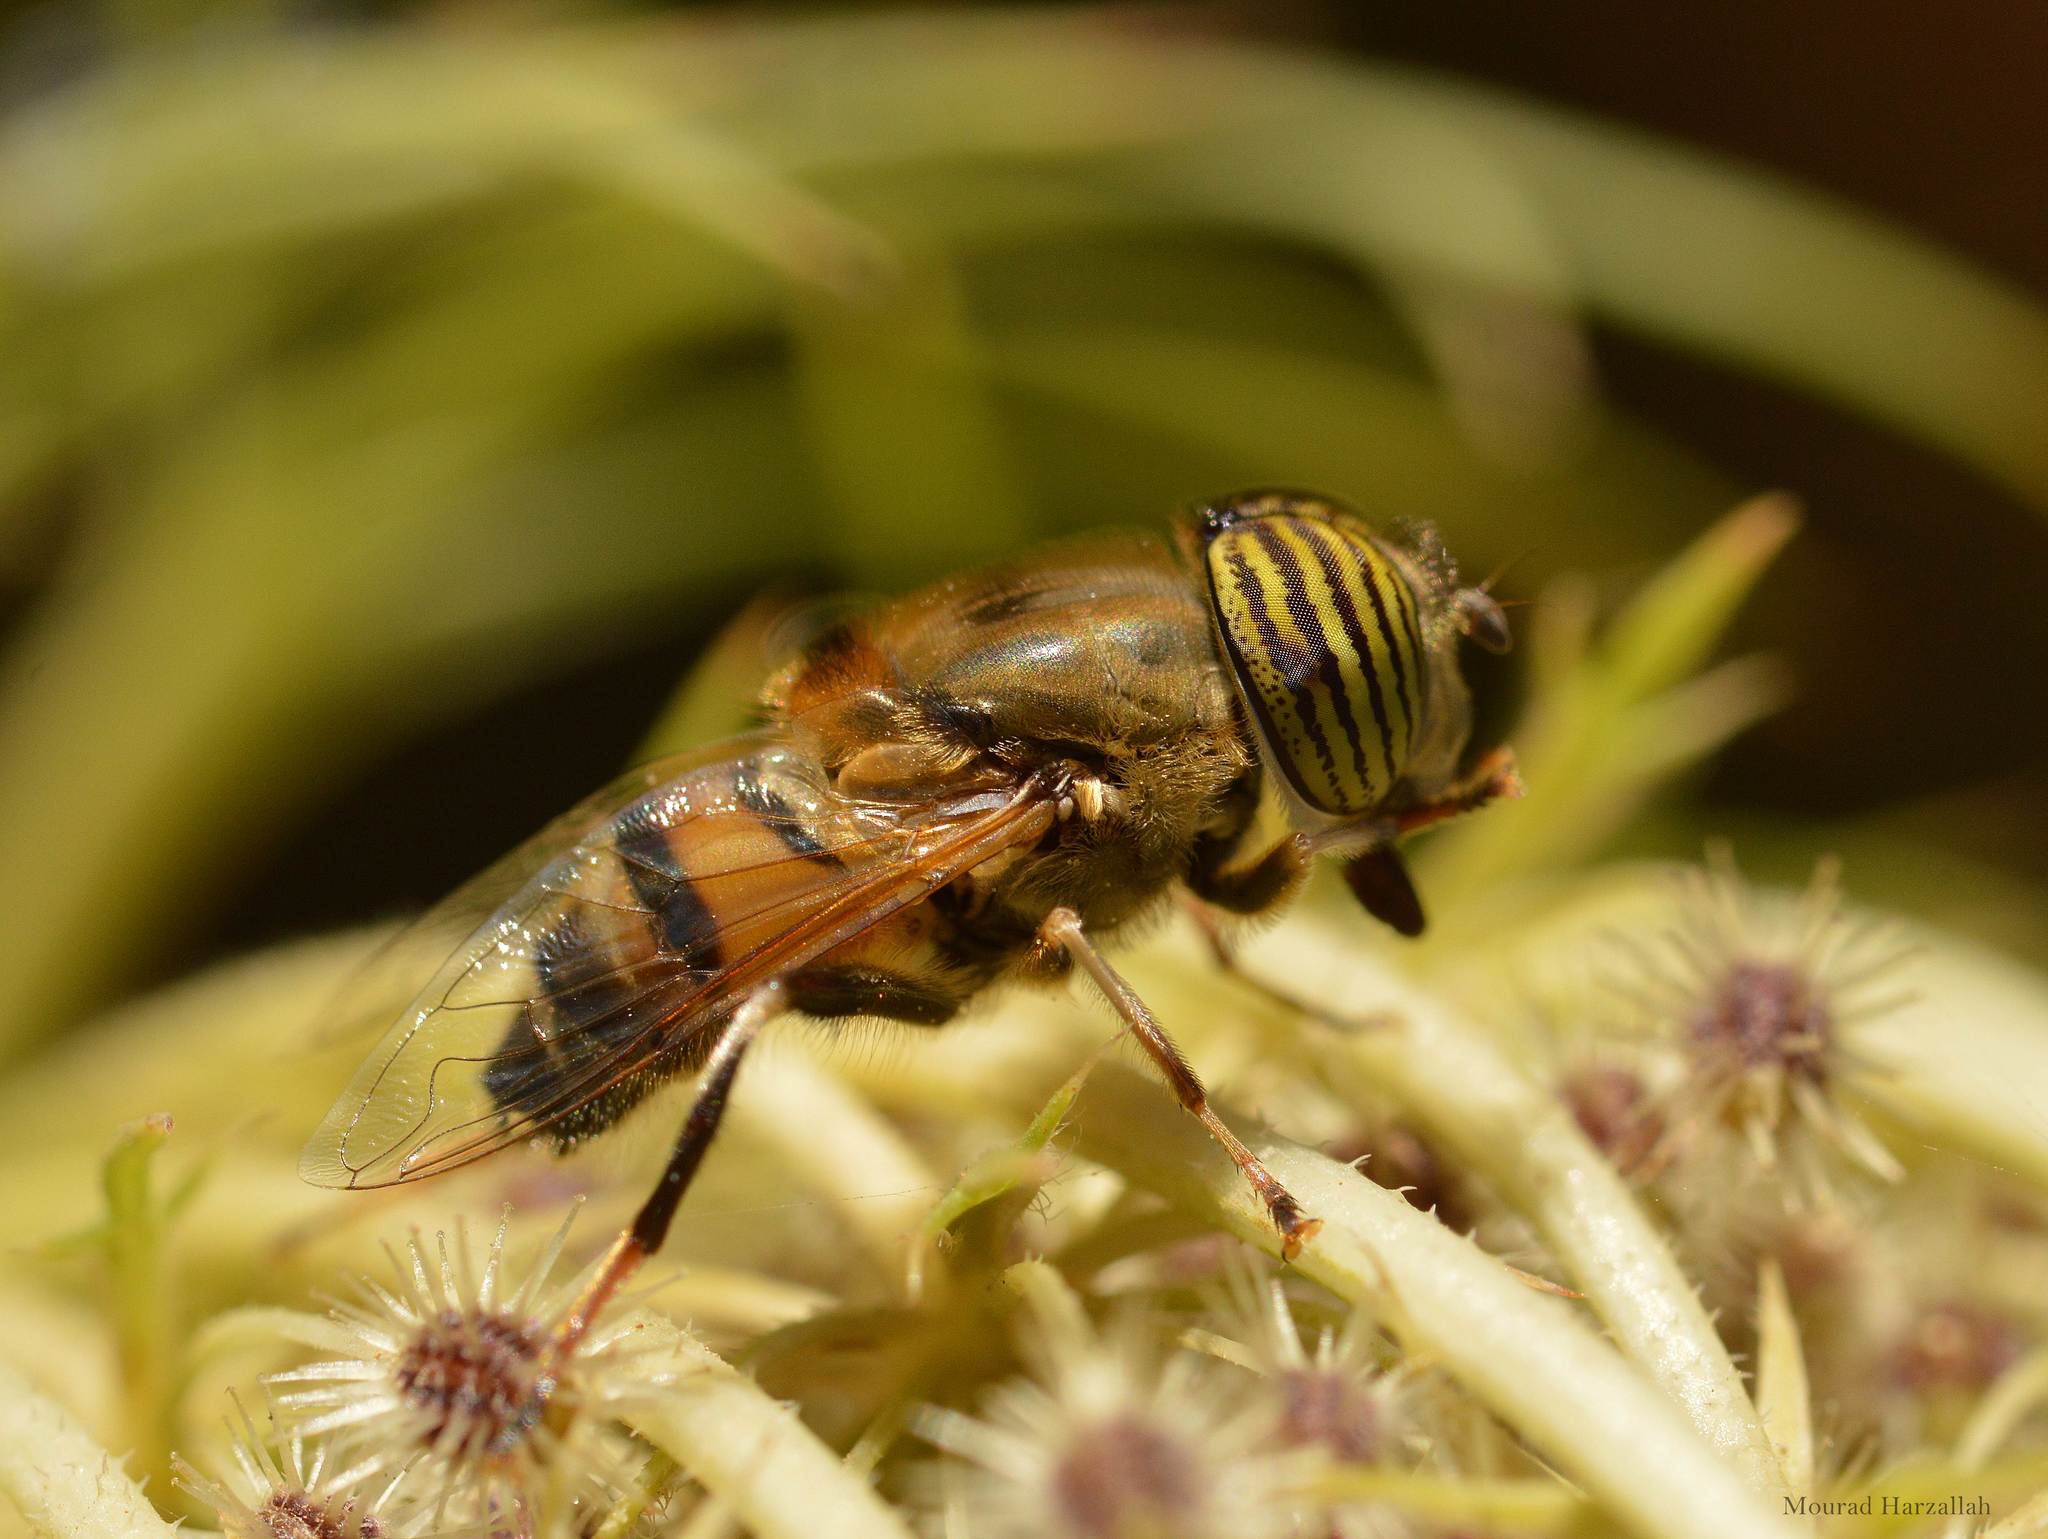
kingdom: Animalia
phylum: Arthropoda
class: Insecta
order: Diptera
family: Syrphidae
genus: Eristalinus
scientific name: Eristalinus taeniops
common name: Syrphid fly
